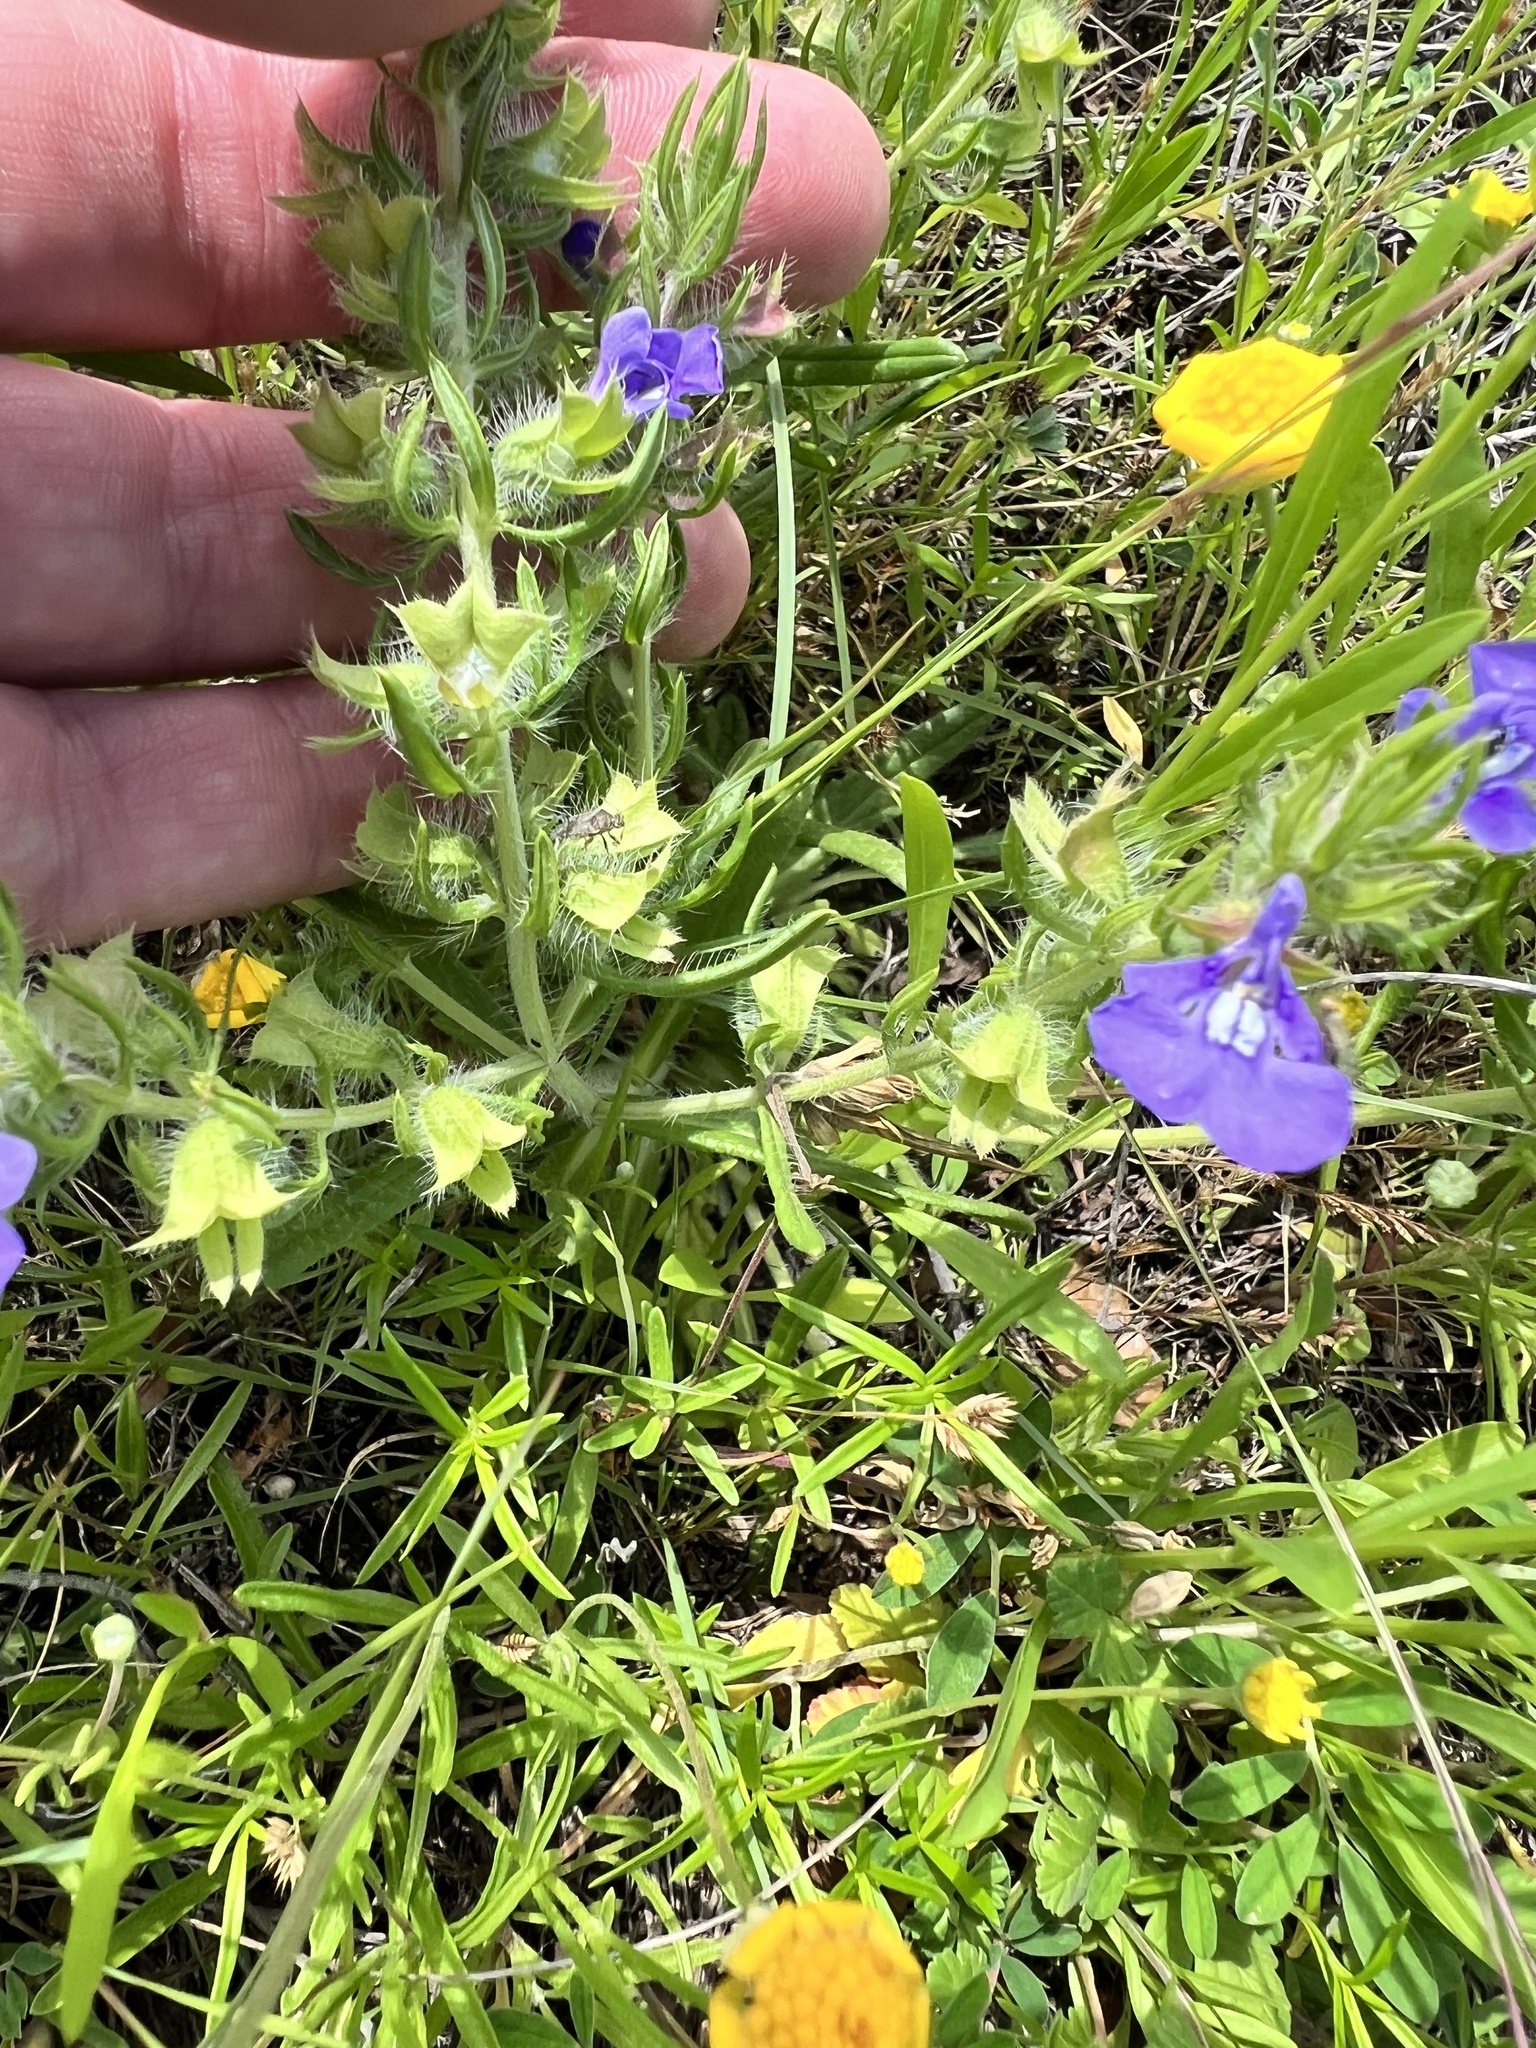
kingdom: Plantae
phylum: Tracheophyta
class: Magnoliopsida
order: Lamiales
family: Lamiaceae
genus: Salvia
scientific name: Salvia texana
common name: Texas sage
